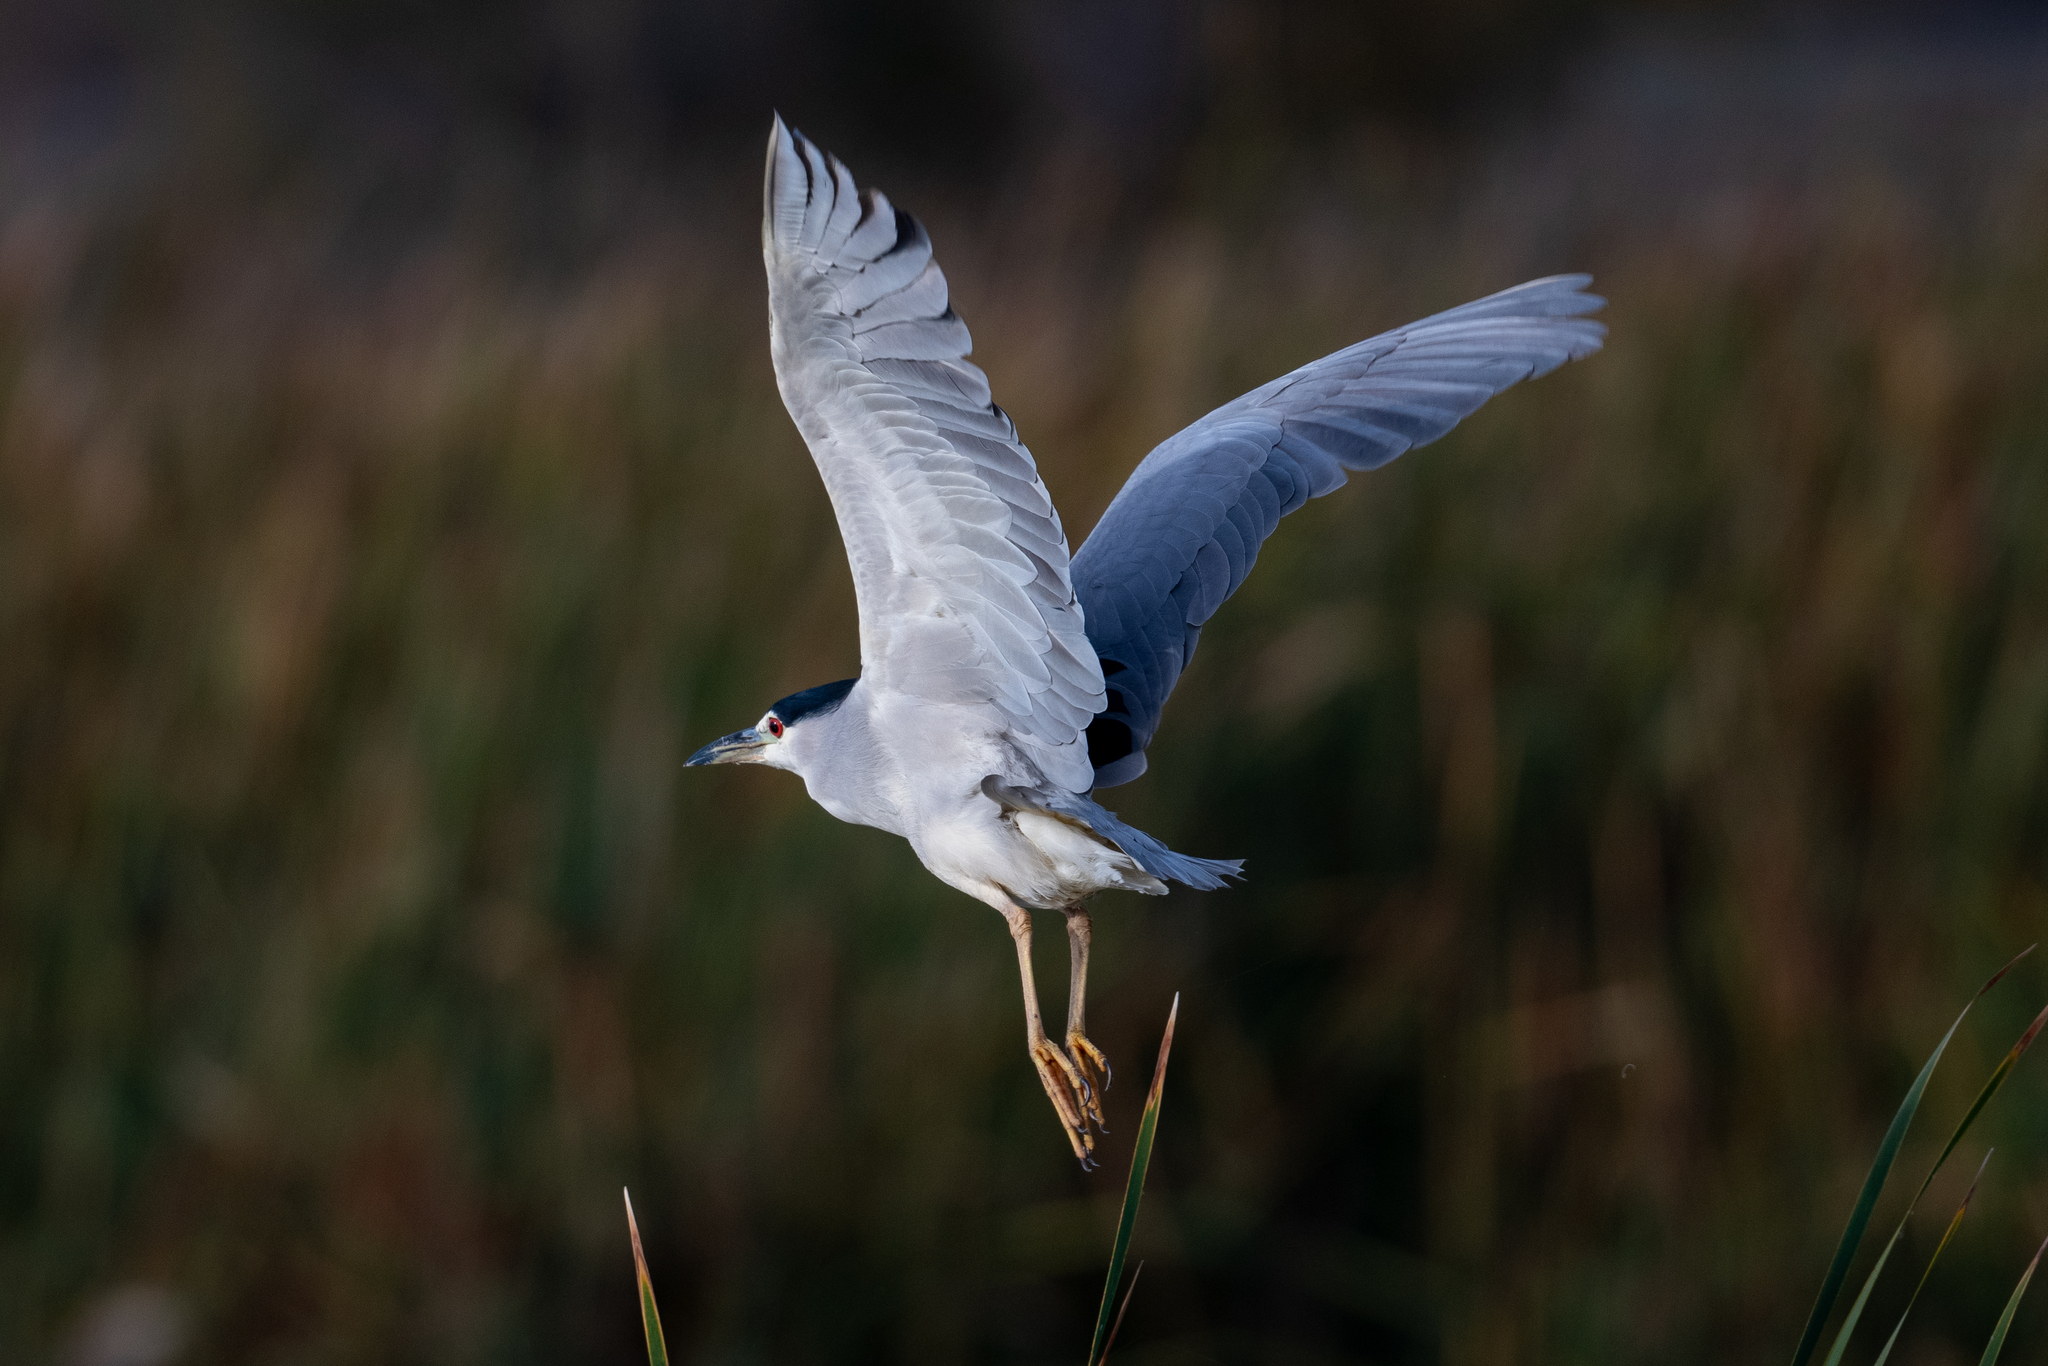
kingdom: Animalia
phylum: Chordata
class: Aves
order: Pelecaniformes
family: Ardeidae
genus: Nycticorax
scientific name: Nycticorax nycticorax
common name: Black-crowned night heron
